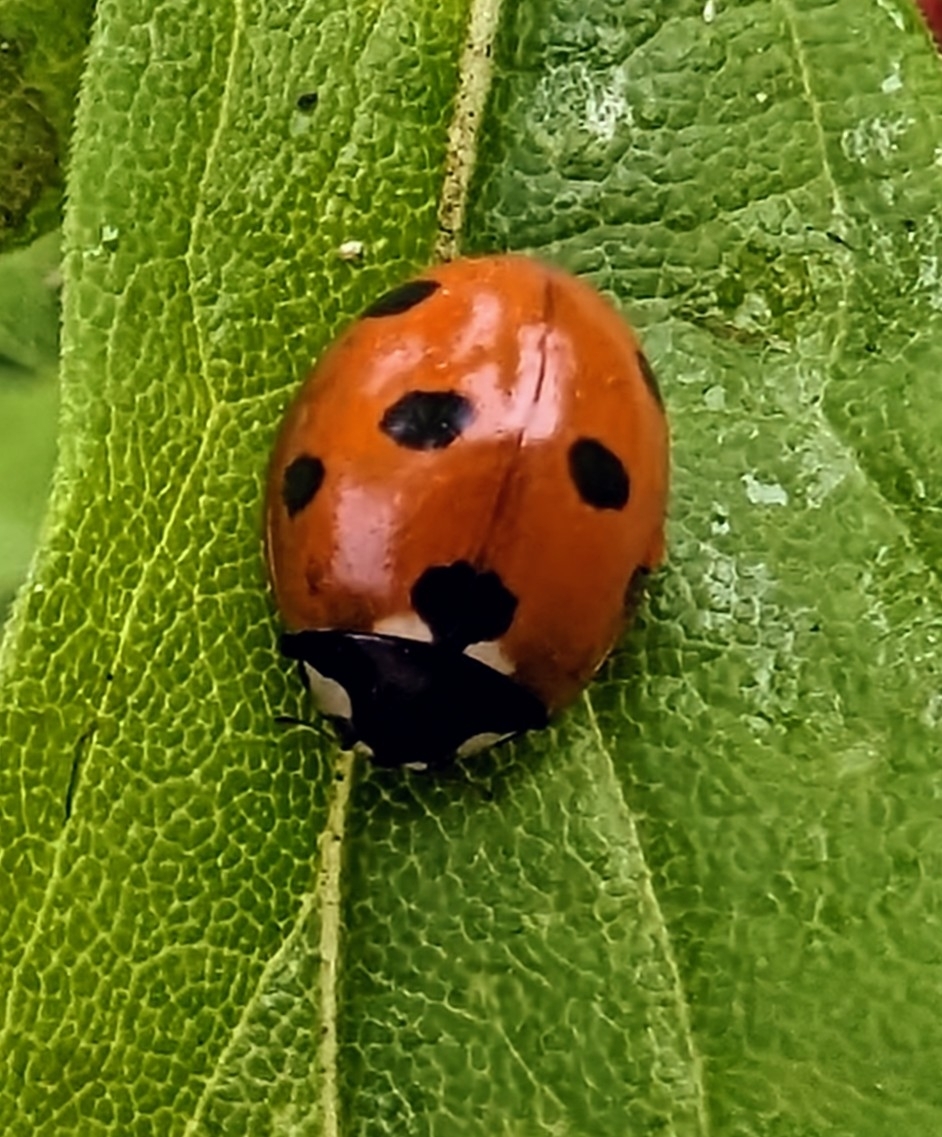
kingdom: Animalia
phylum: Arthropoda
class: Insecta
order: Coleoptera
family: Coccinellidae
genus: Coccinella
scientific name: Coccinella septempunctata
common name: Sevenspotted lady beetle
